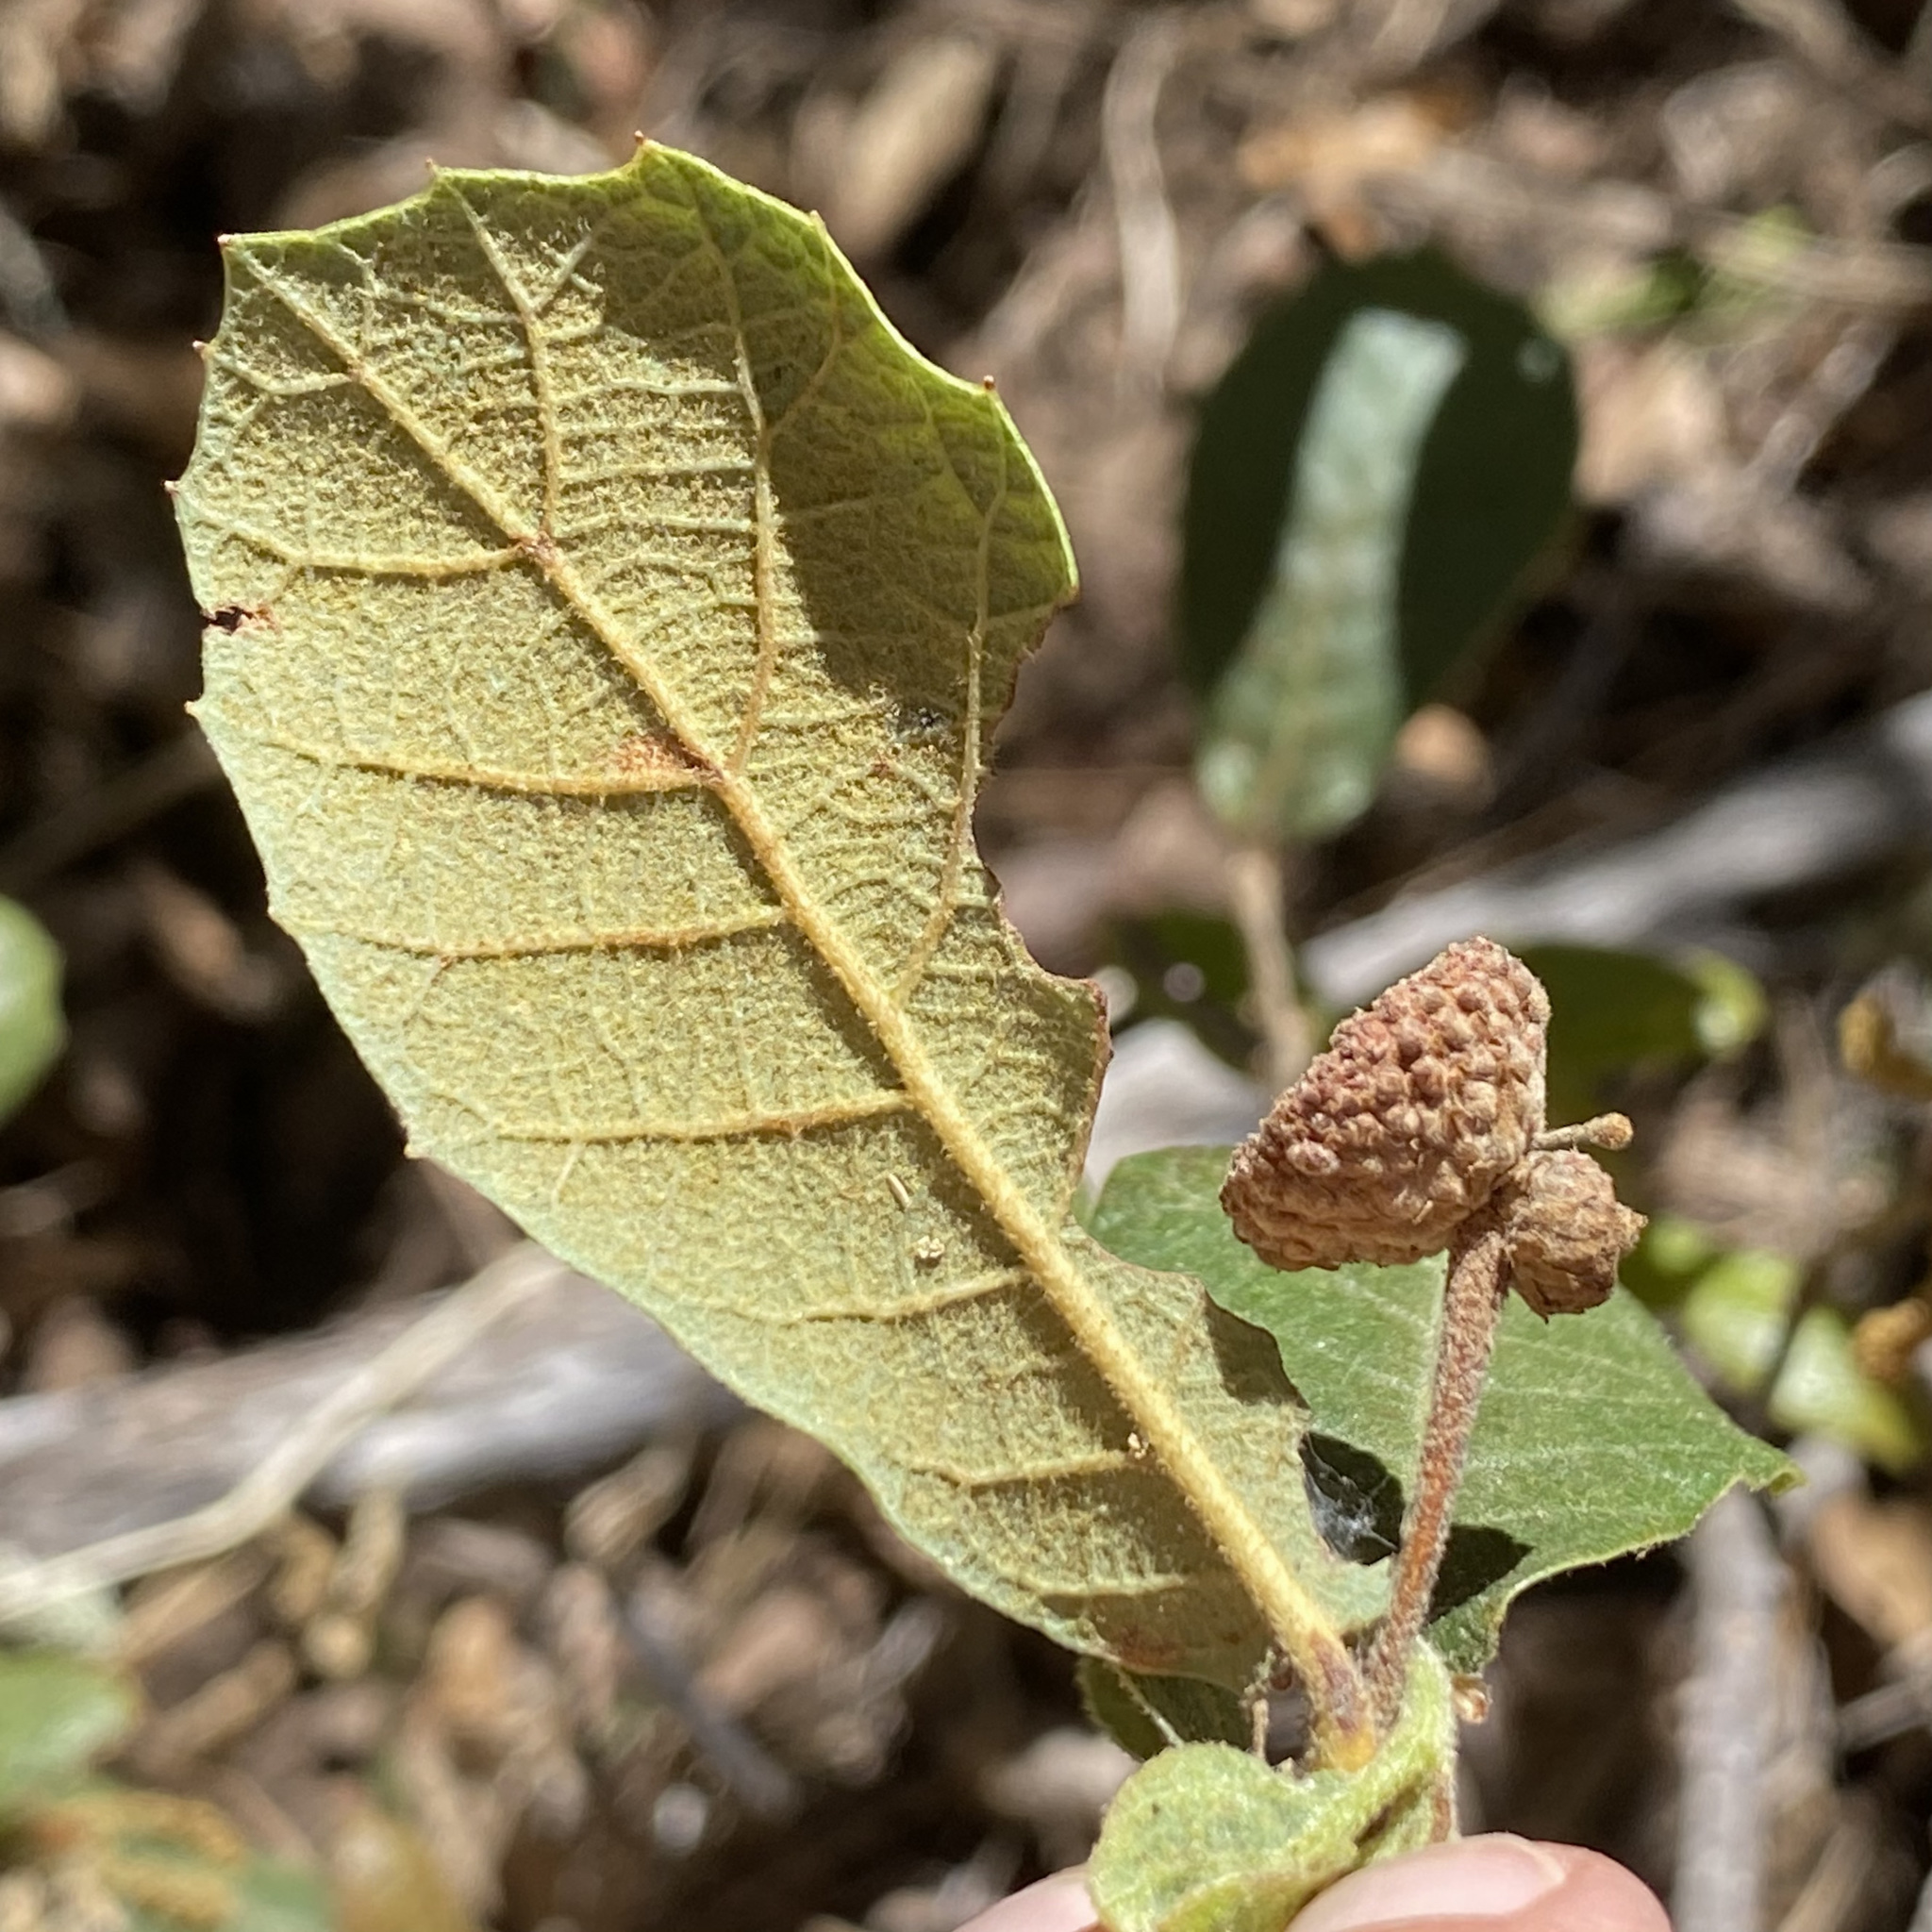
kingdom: Plantae
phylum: Tracheophyta
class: Magnoliopsida
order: Fagales
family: Fagaceae
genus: Quercus
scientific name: Quercus rugosa
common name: Netleaf oak
